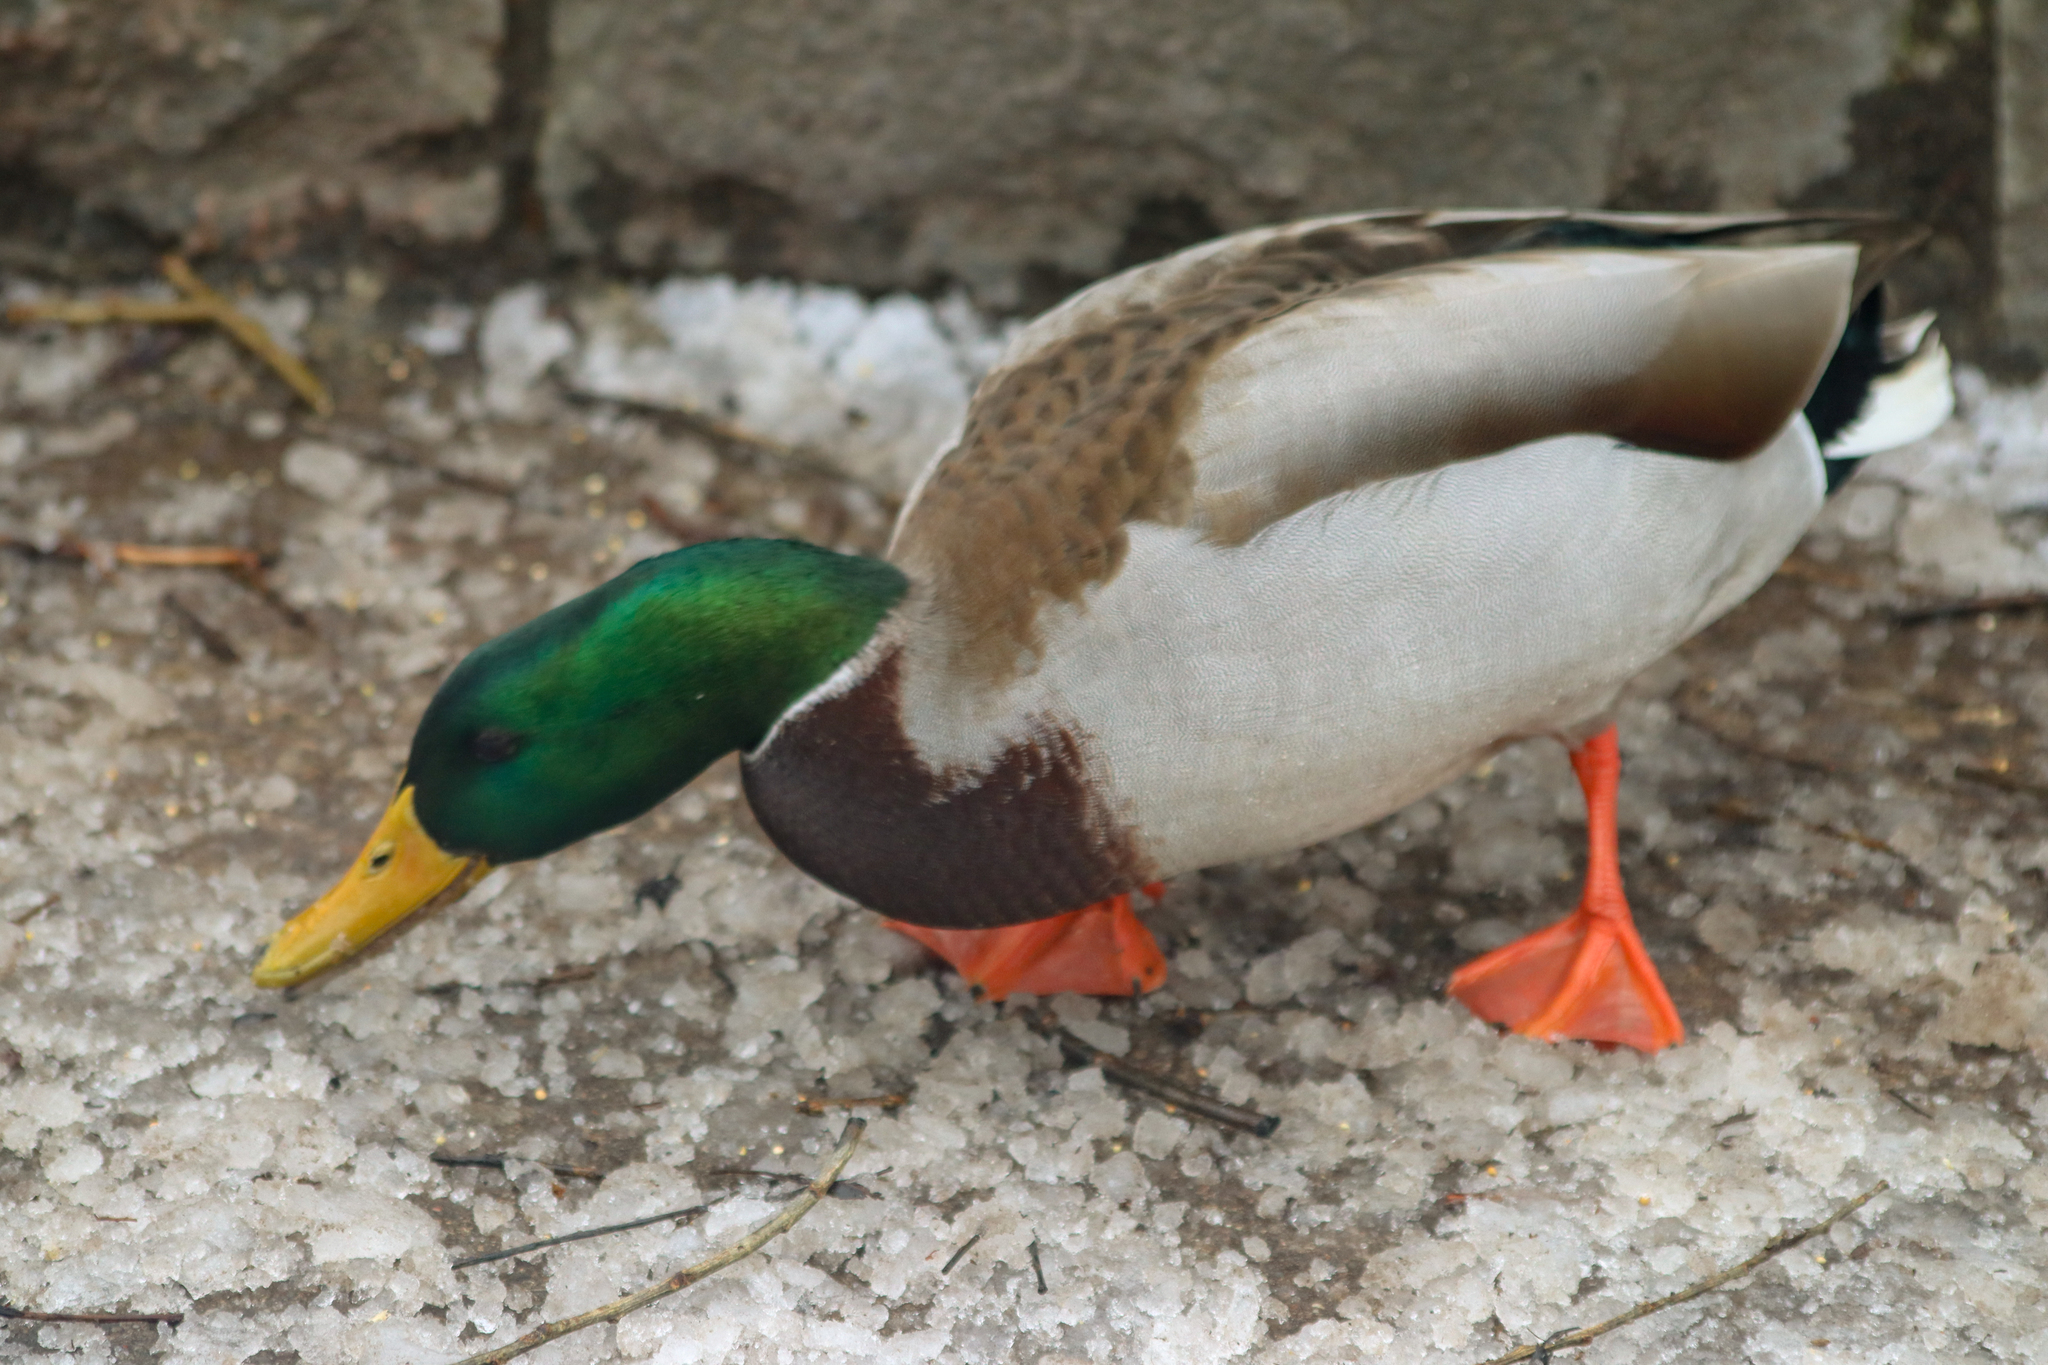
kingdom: Animalia
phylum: Chordata
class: Aves
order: Anseriformes
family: Anatidae
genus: Anas
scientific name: Anas platyrhynchos
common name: Mallard
